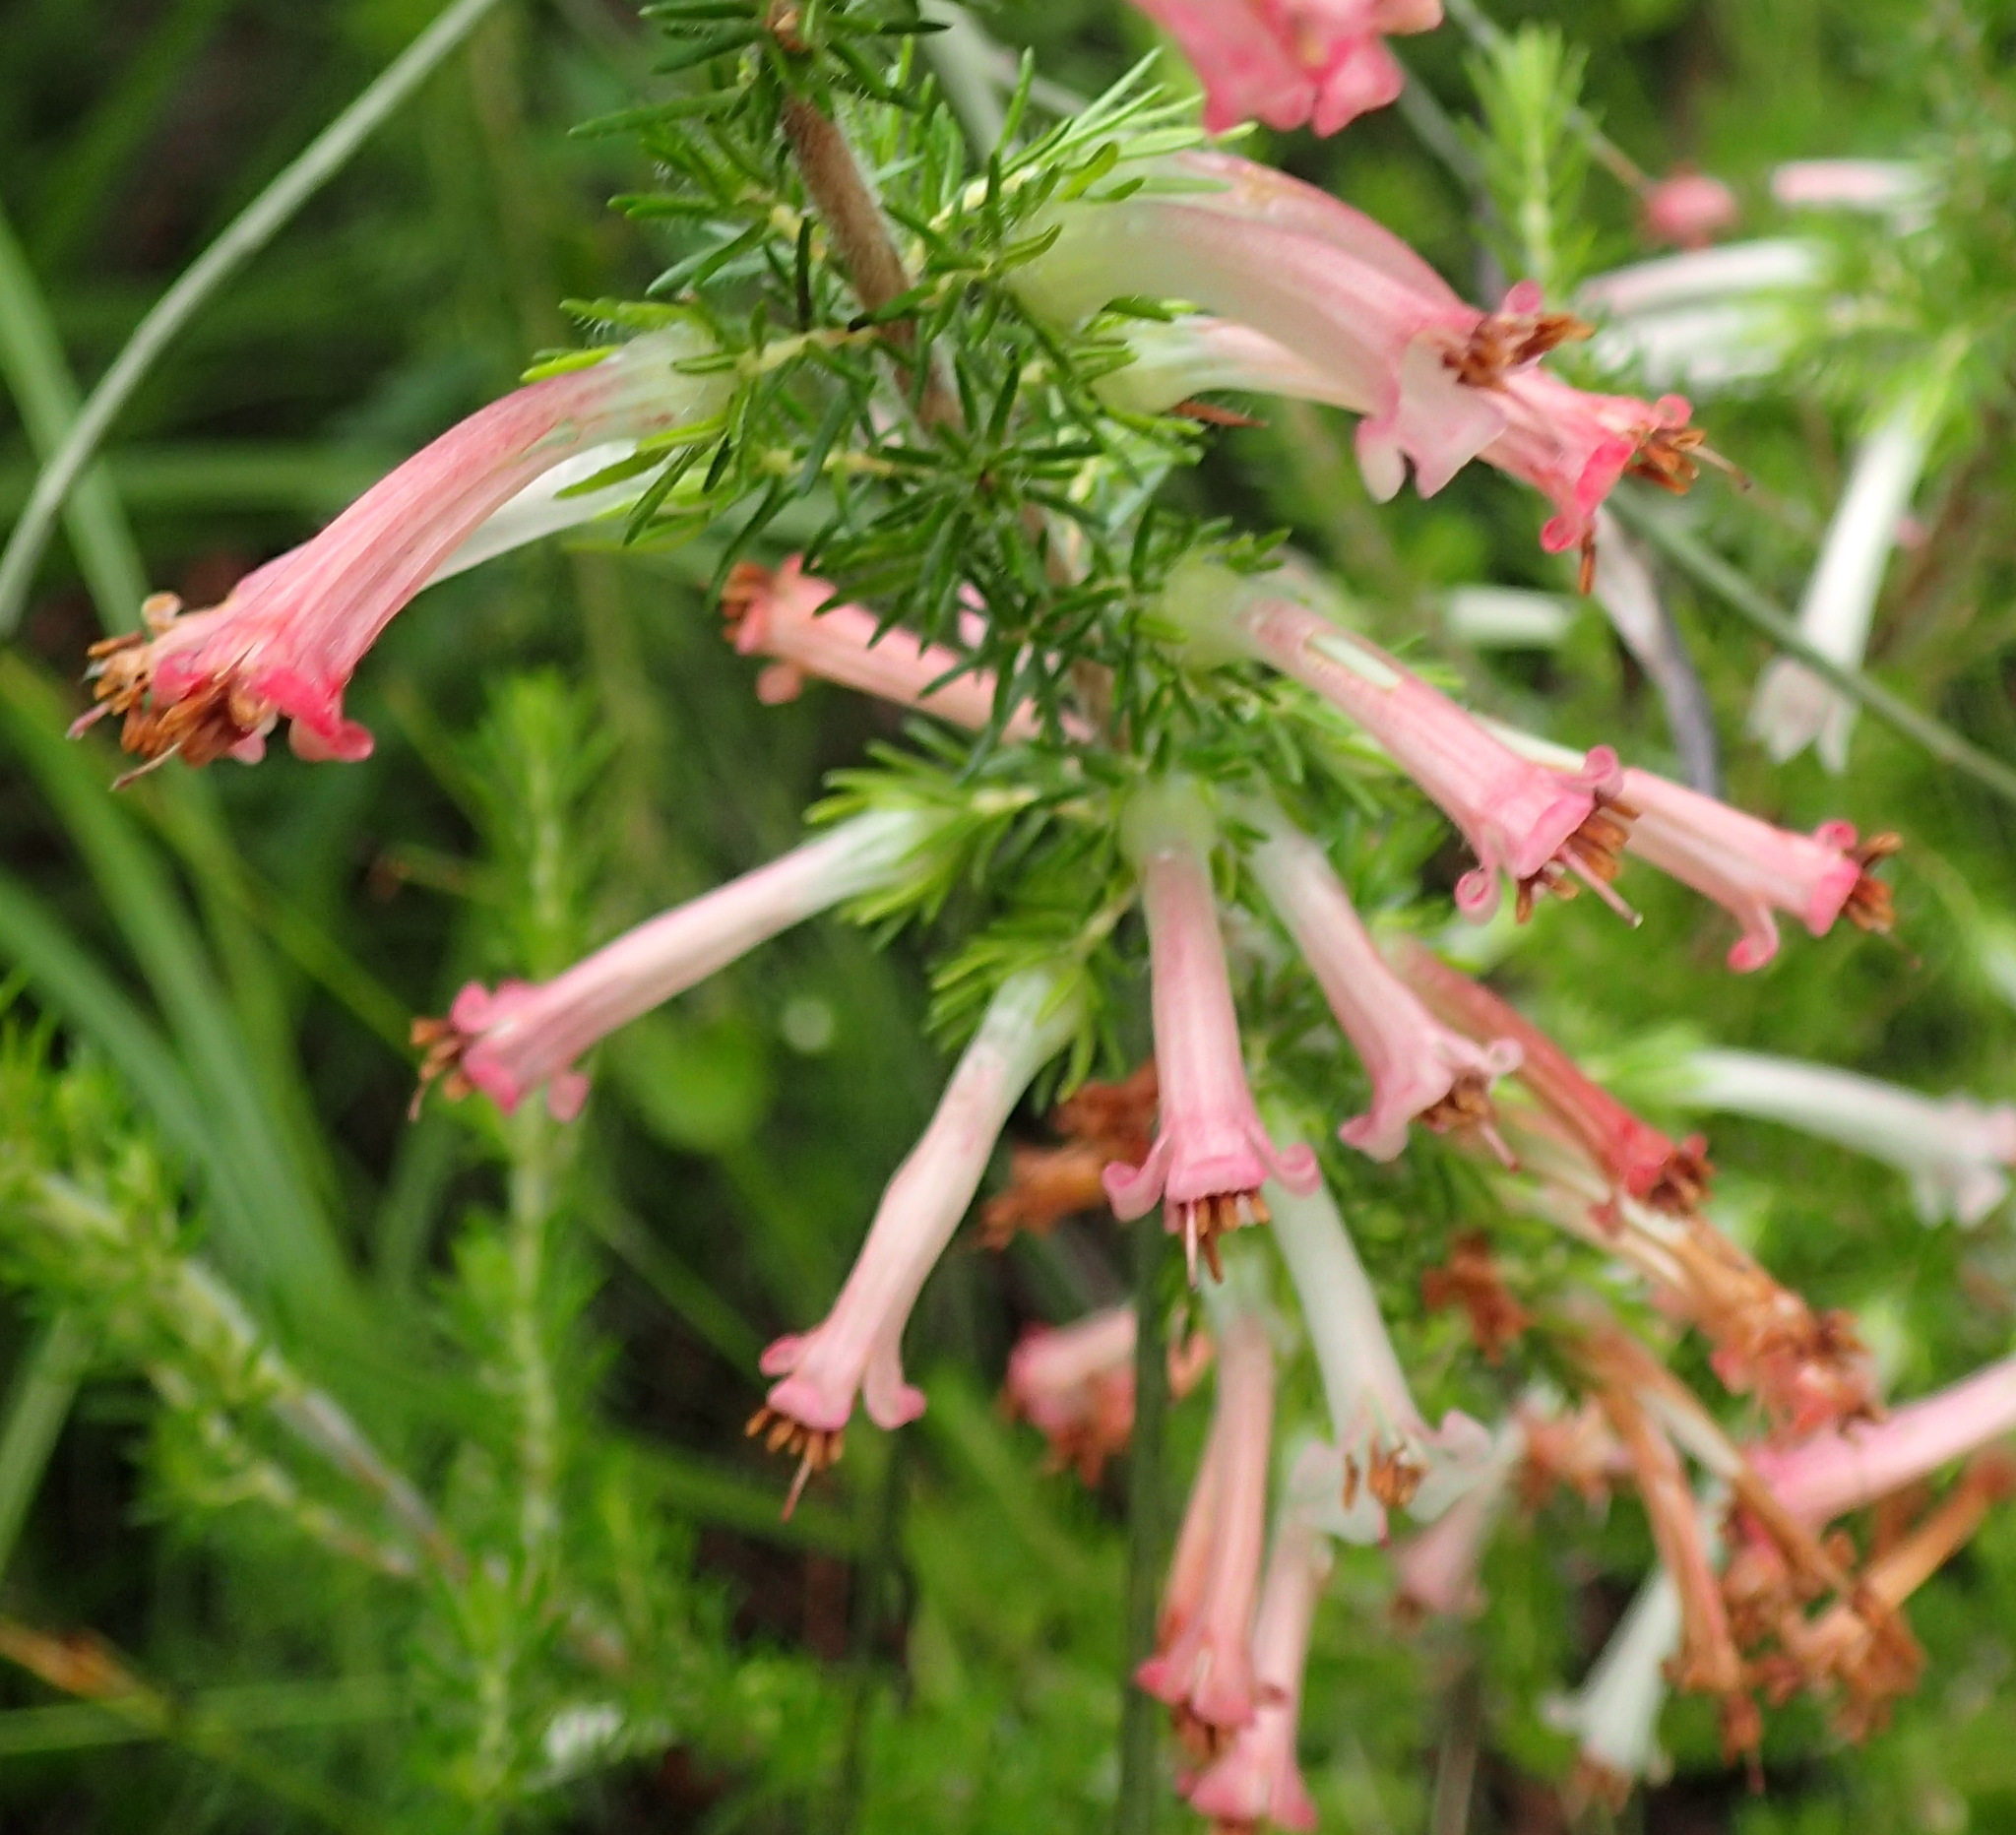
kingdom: Plantae
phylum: Tracheophyta
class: Magnoliopsida
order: Ericales
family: Ericaceae
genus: Erica
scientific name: Erica curviflora
